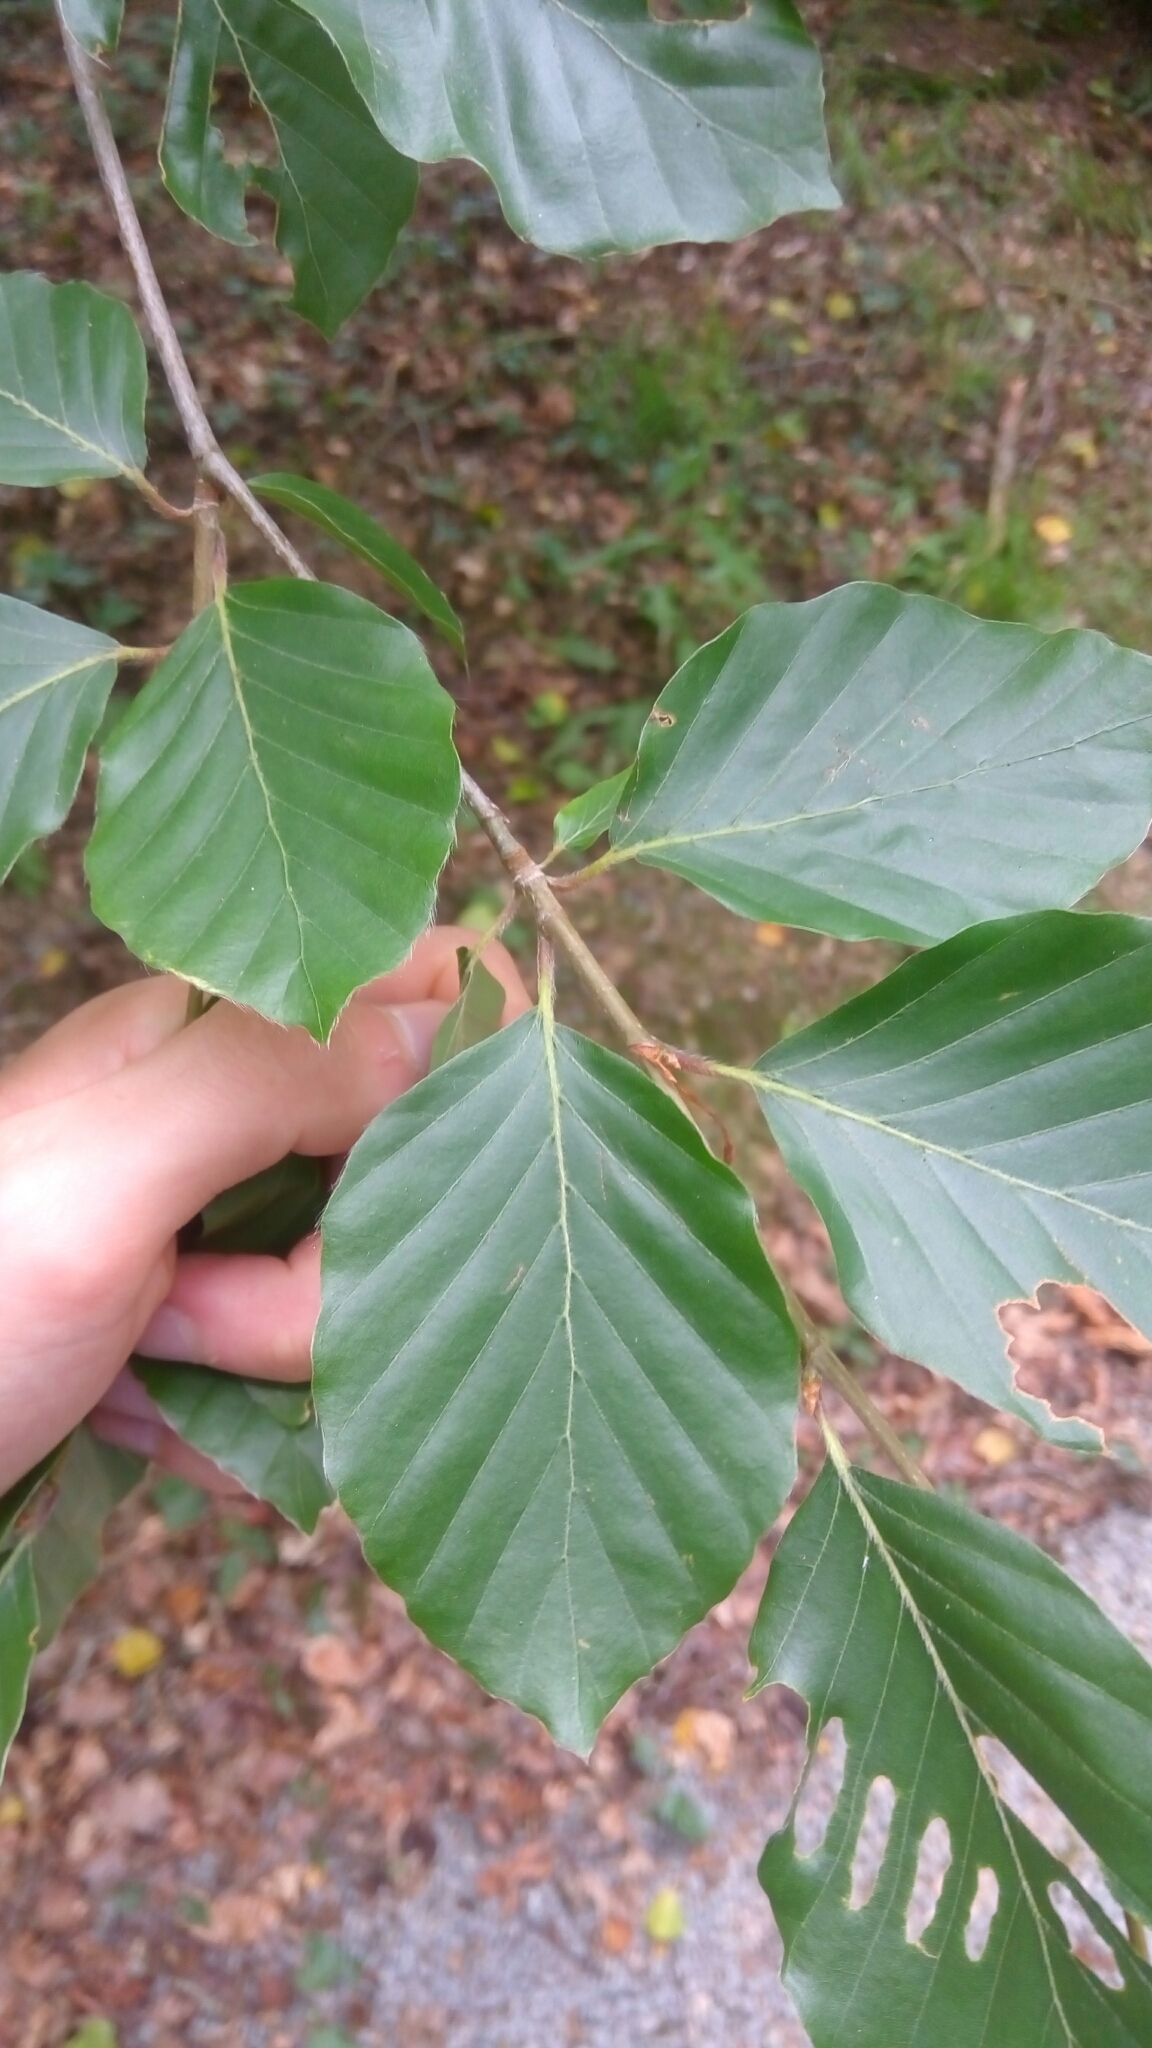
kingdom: Plantae
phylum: Tracheophyta
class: Magnoliopsida
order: Fagales
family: Fagaceae
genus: Fagus
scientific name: Fagus sylvatica
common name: Beech
